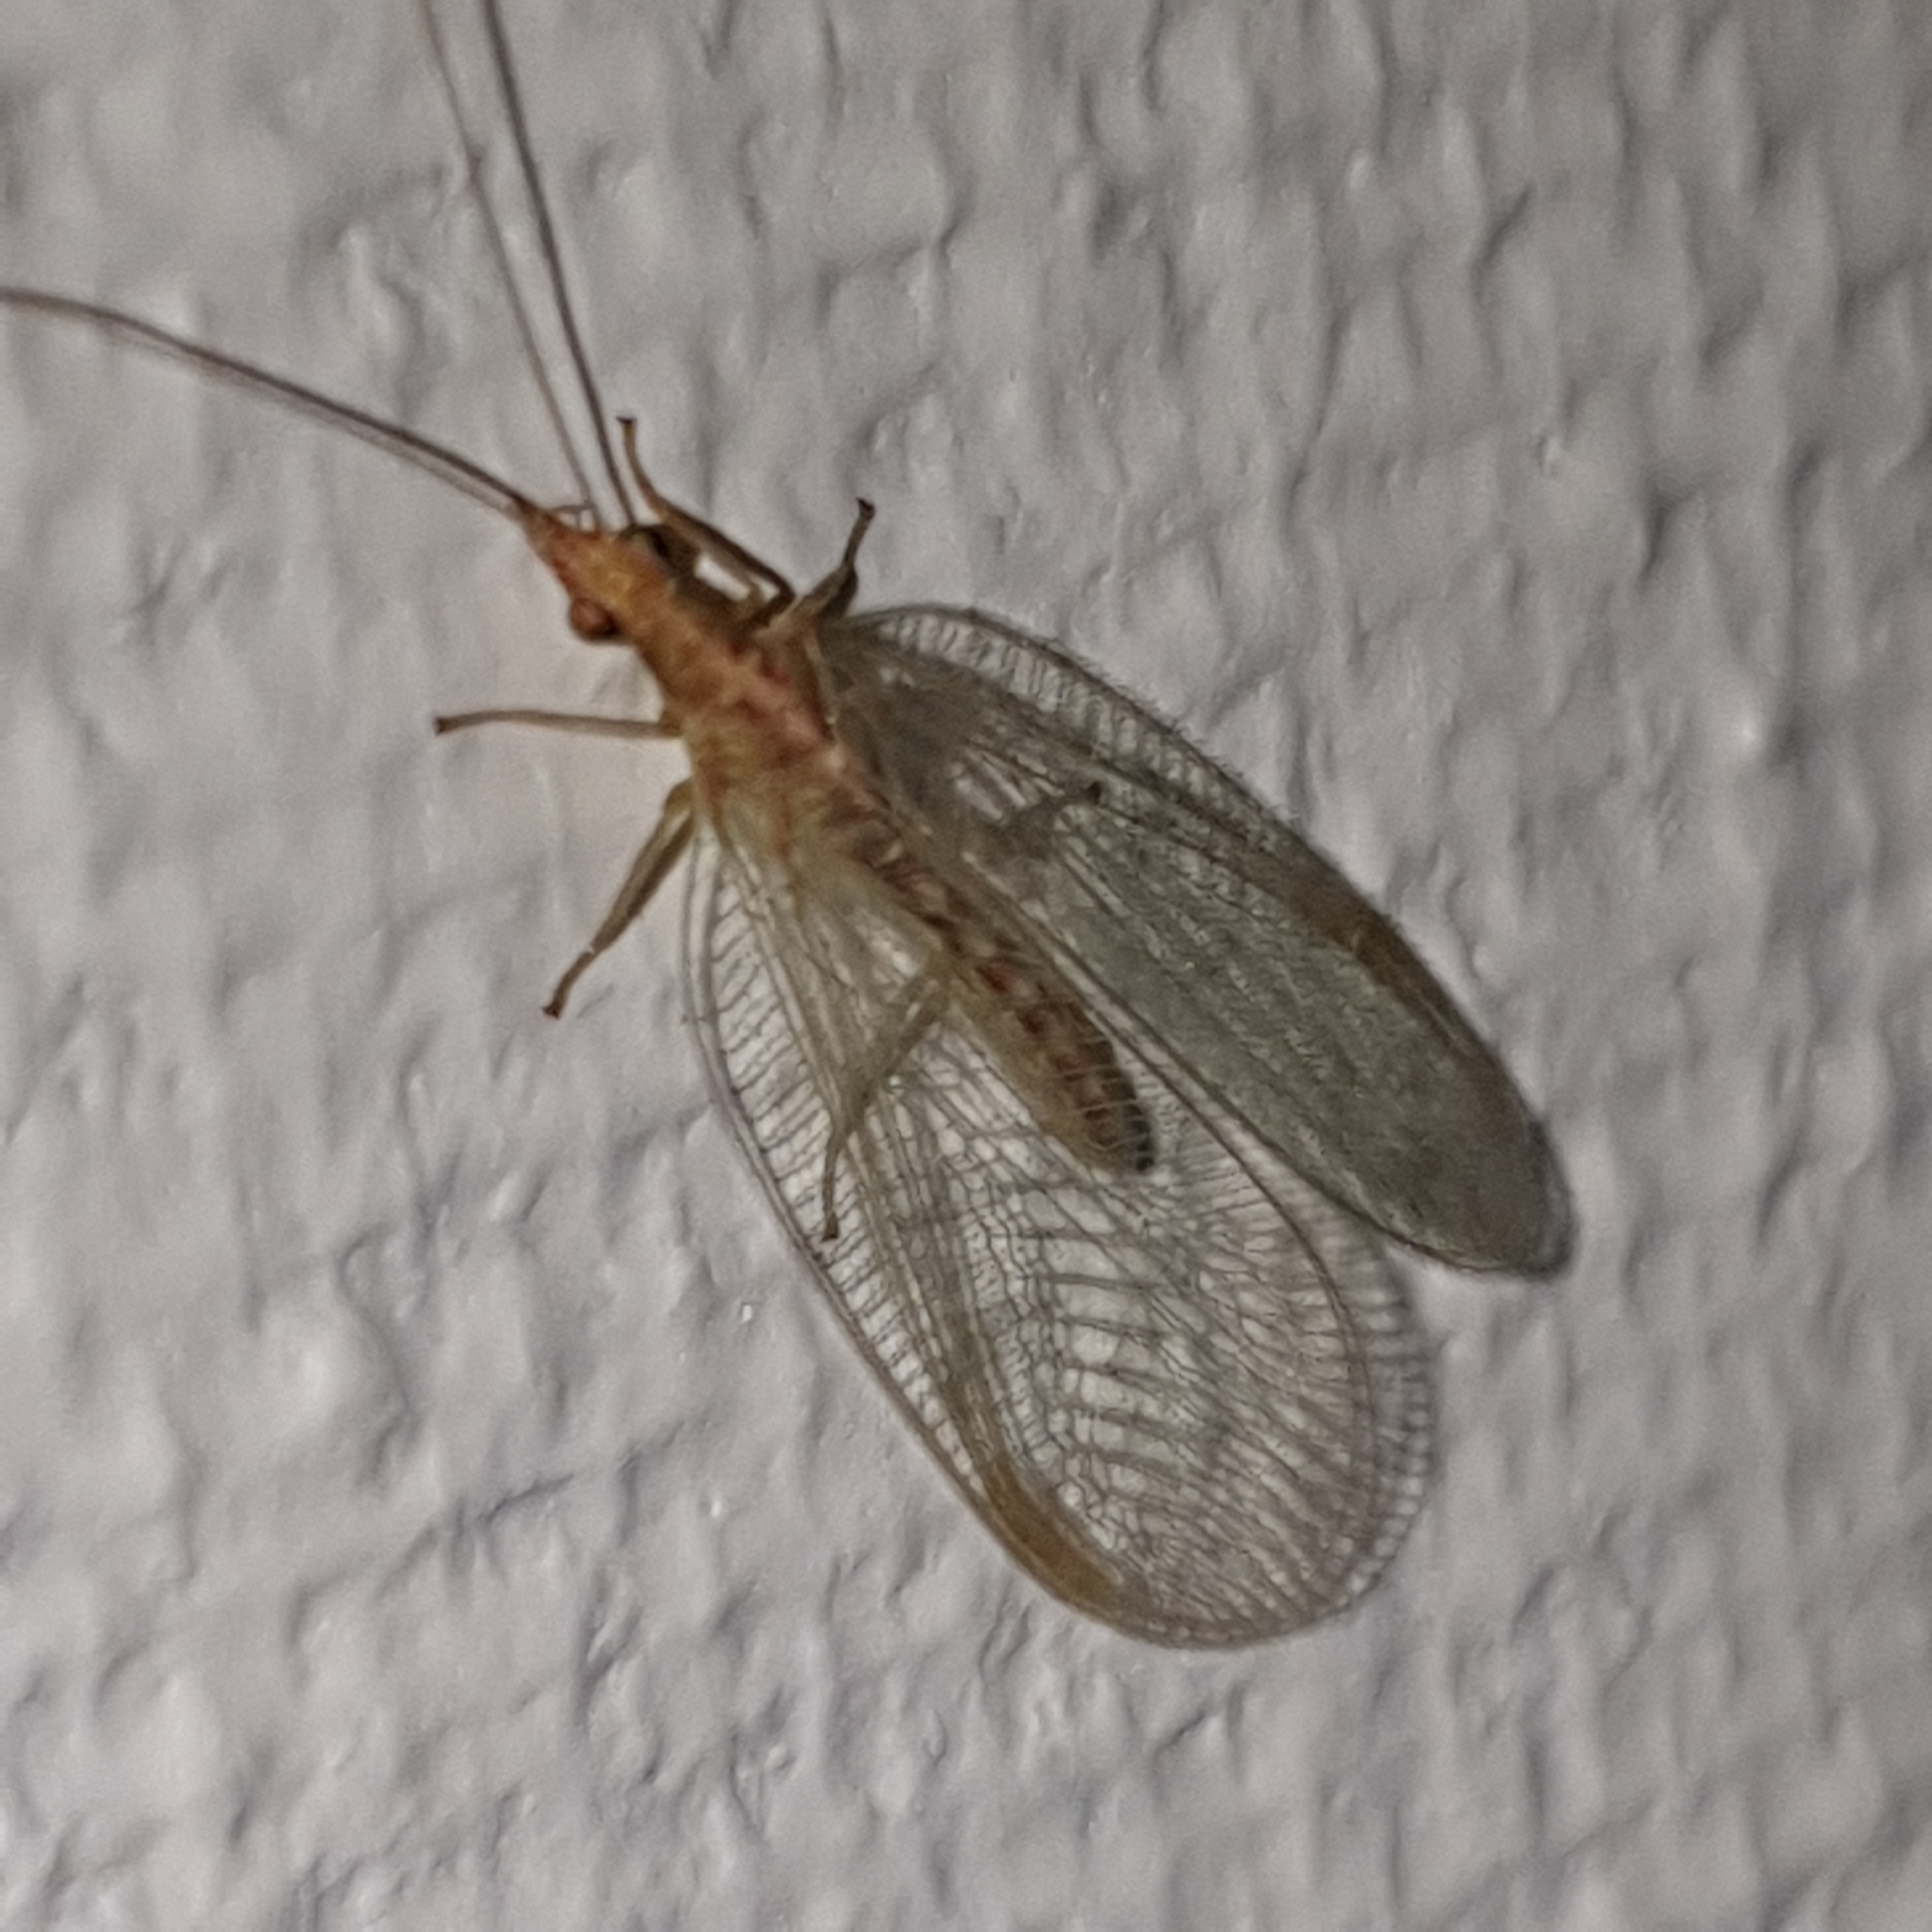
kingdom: Animalia
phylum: Arthropoda
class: Insecta
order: Neuroptera
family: Chrysopidae
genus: Chrysoperla
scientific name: Chrysoperla
